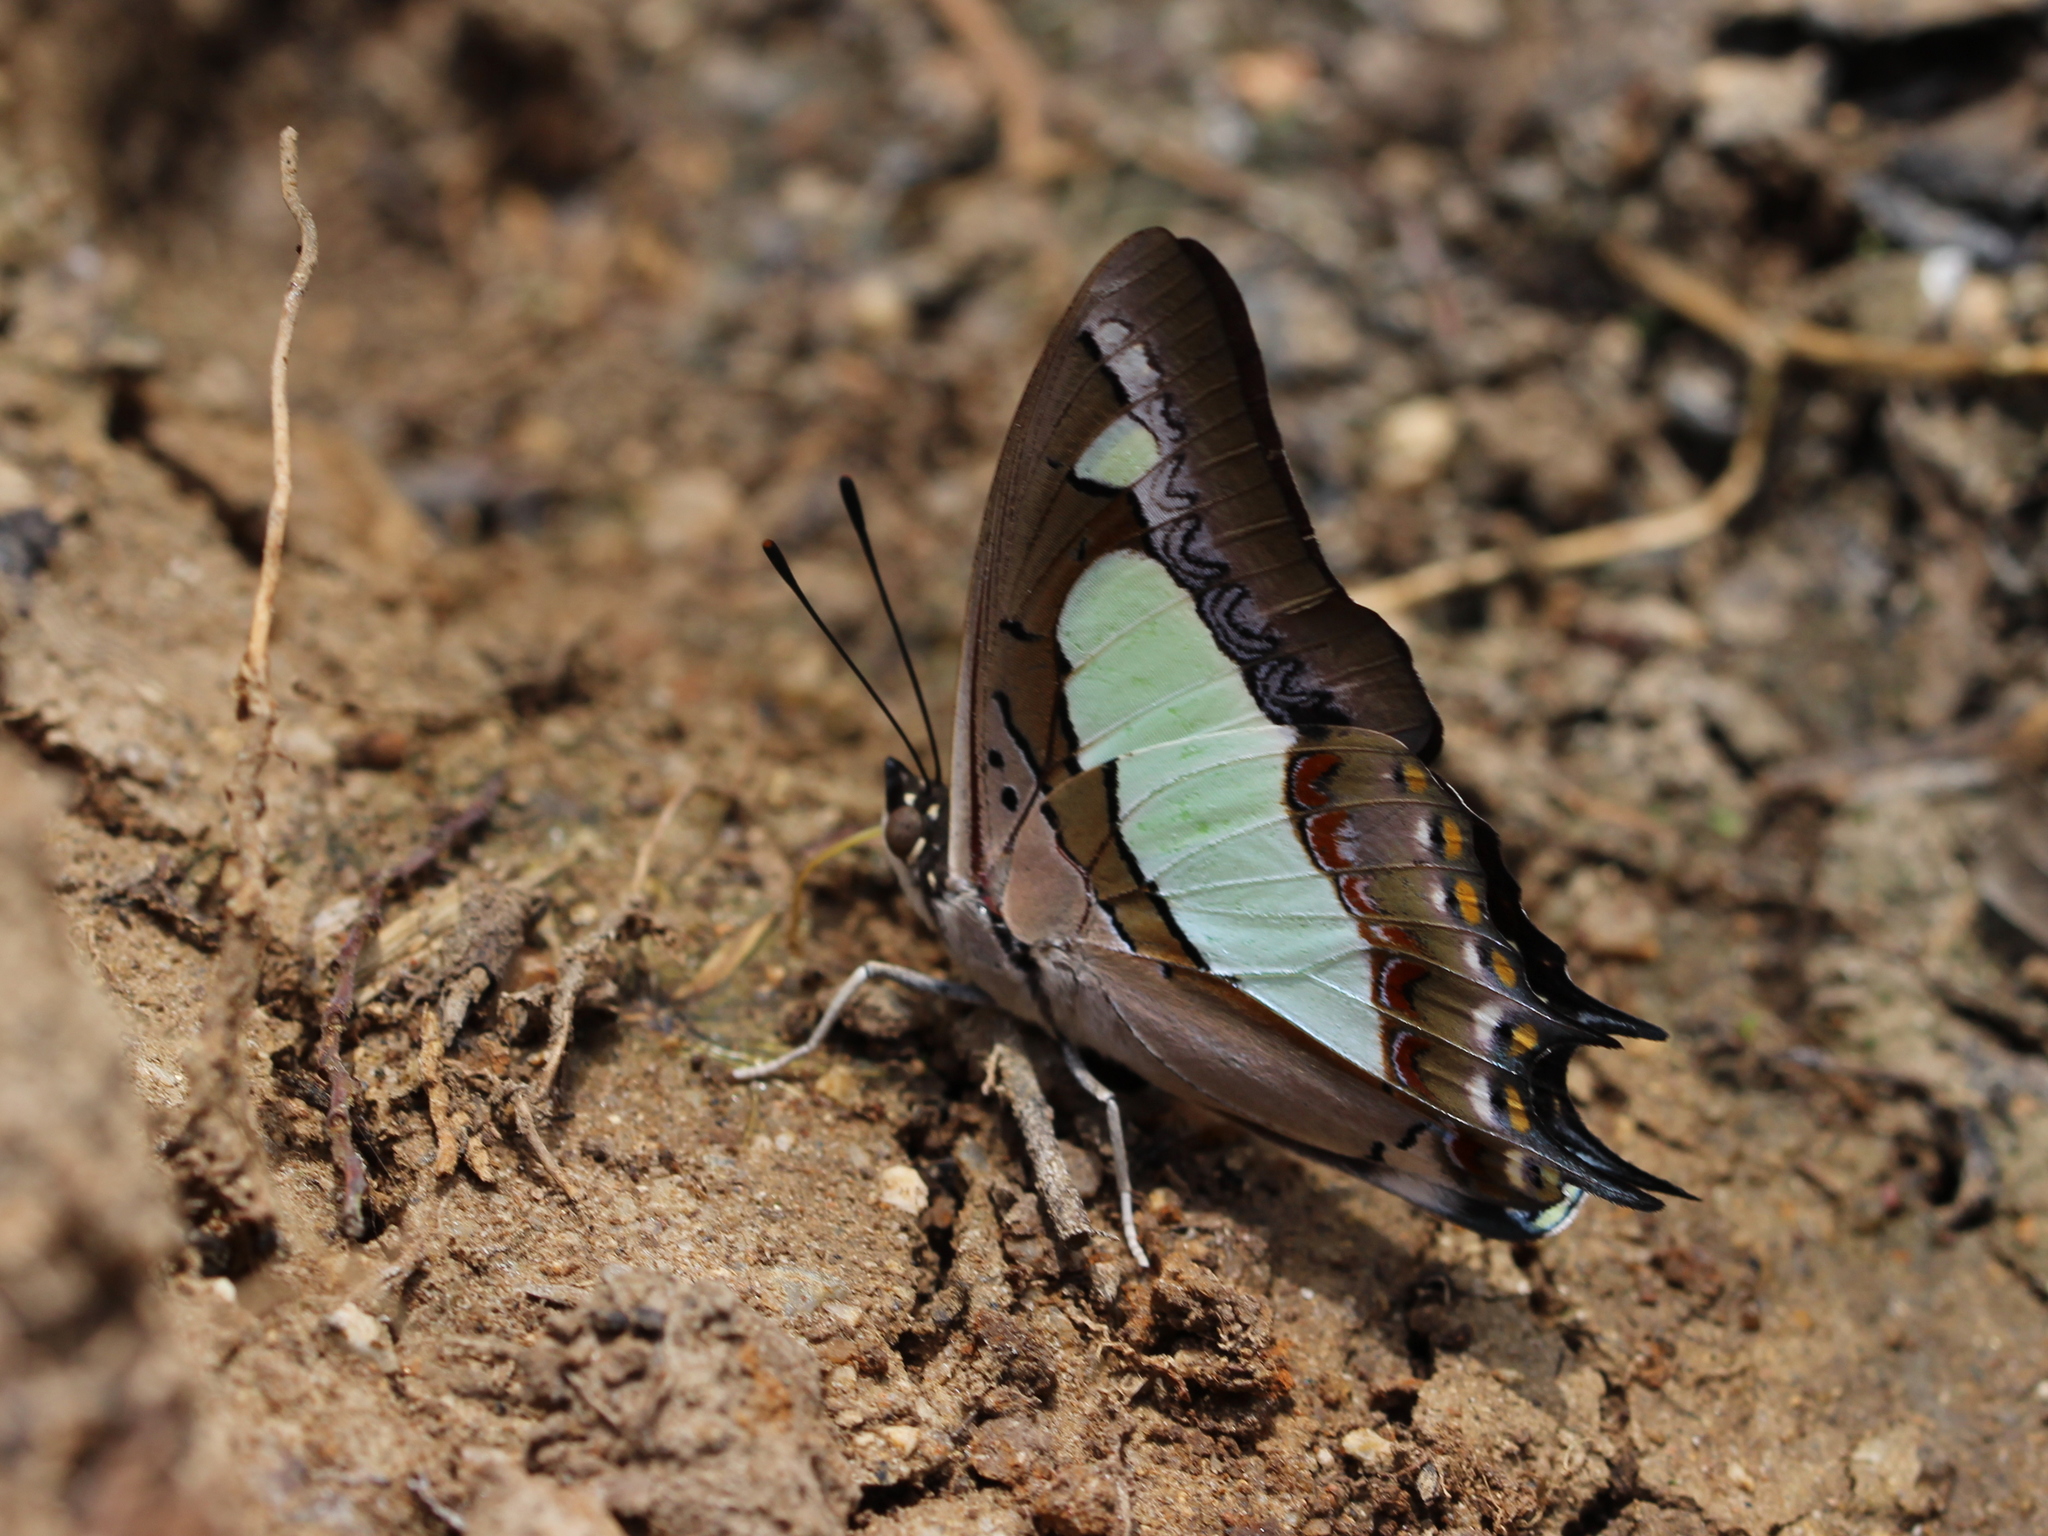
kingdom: Animalia
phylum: Arthropoda
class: Insecta
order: Lepidoptera
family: Nymphalidae
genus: Polyura
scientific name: Polyura agrarius
